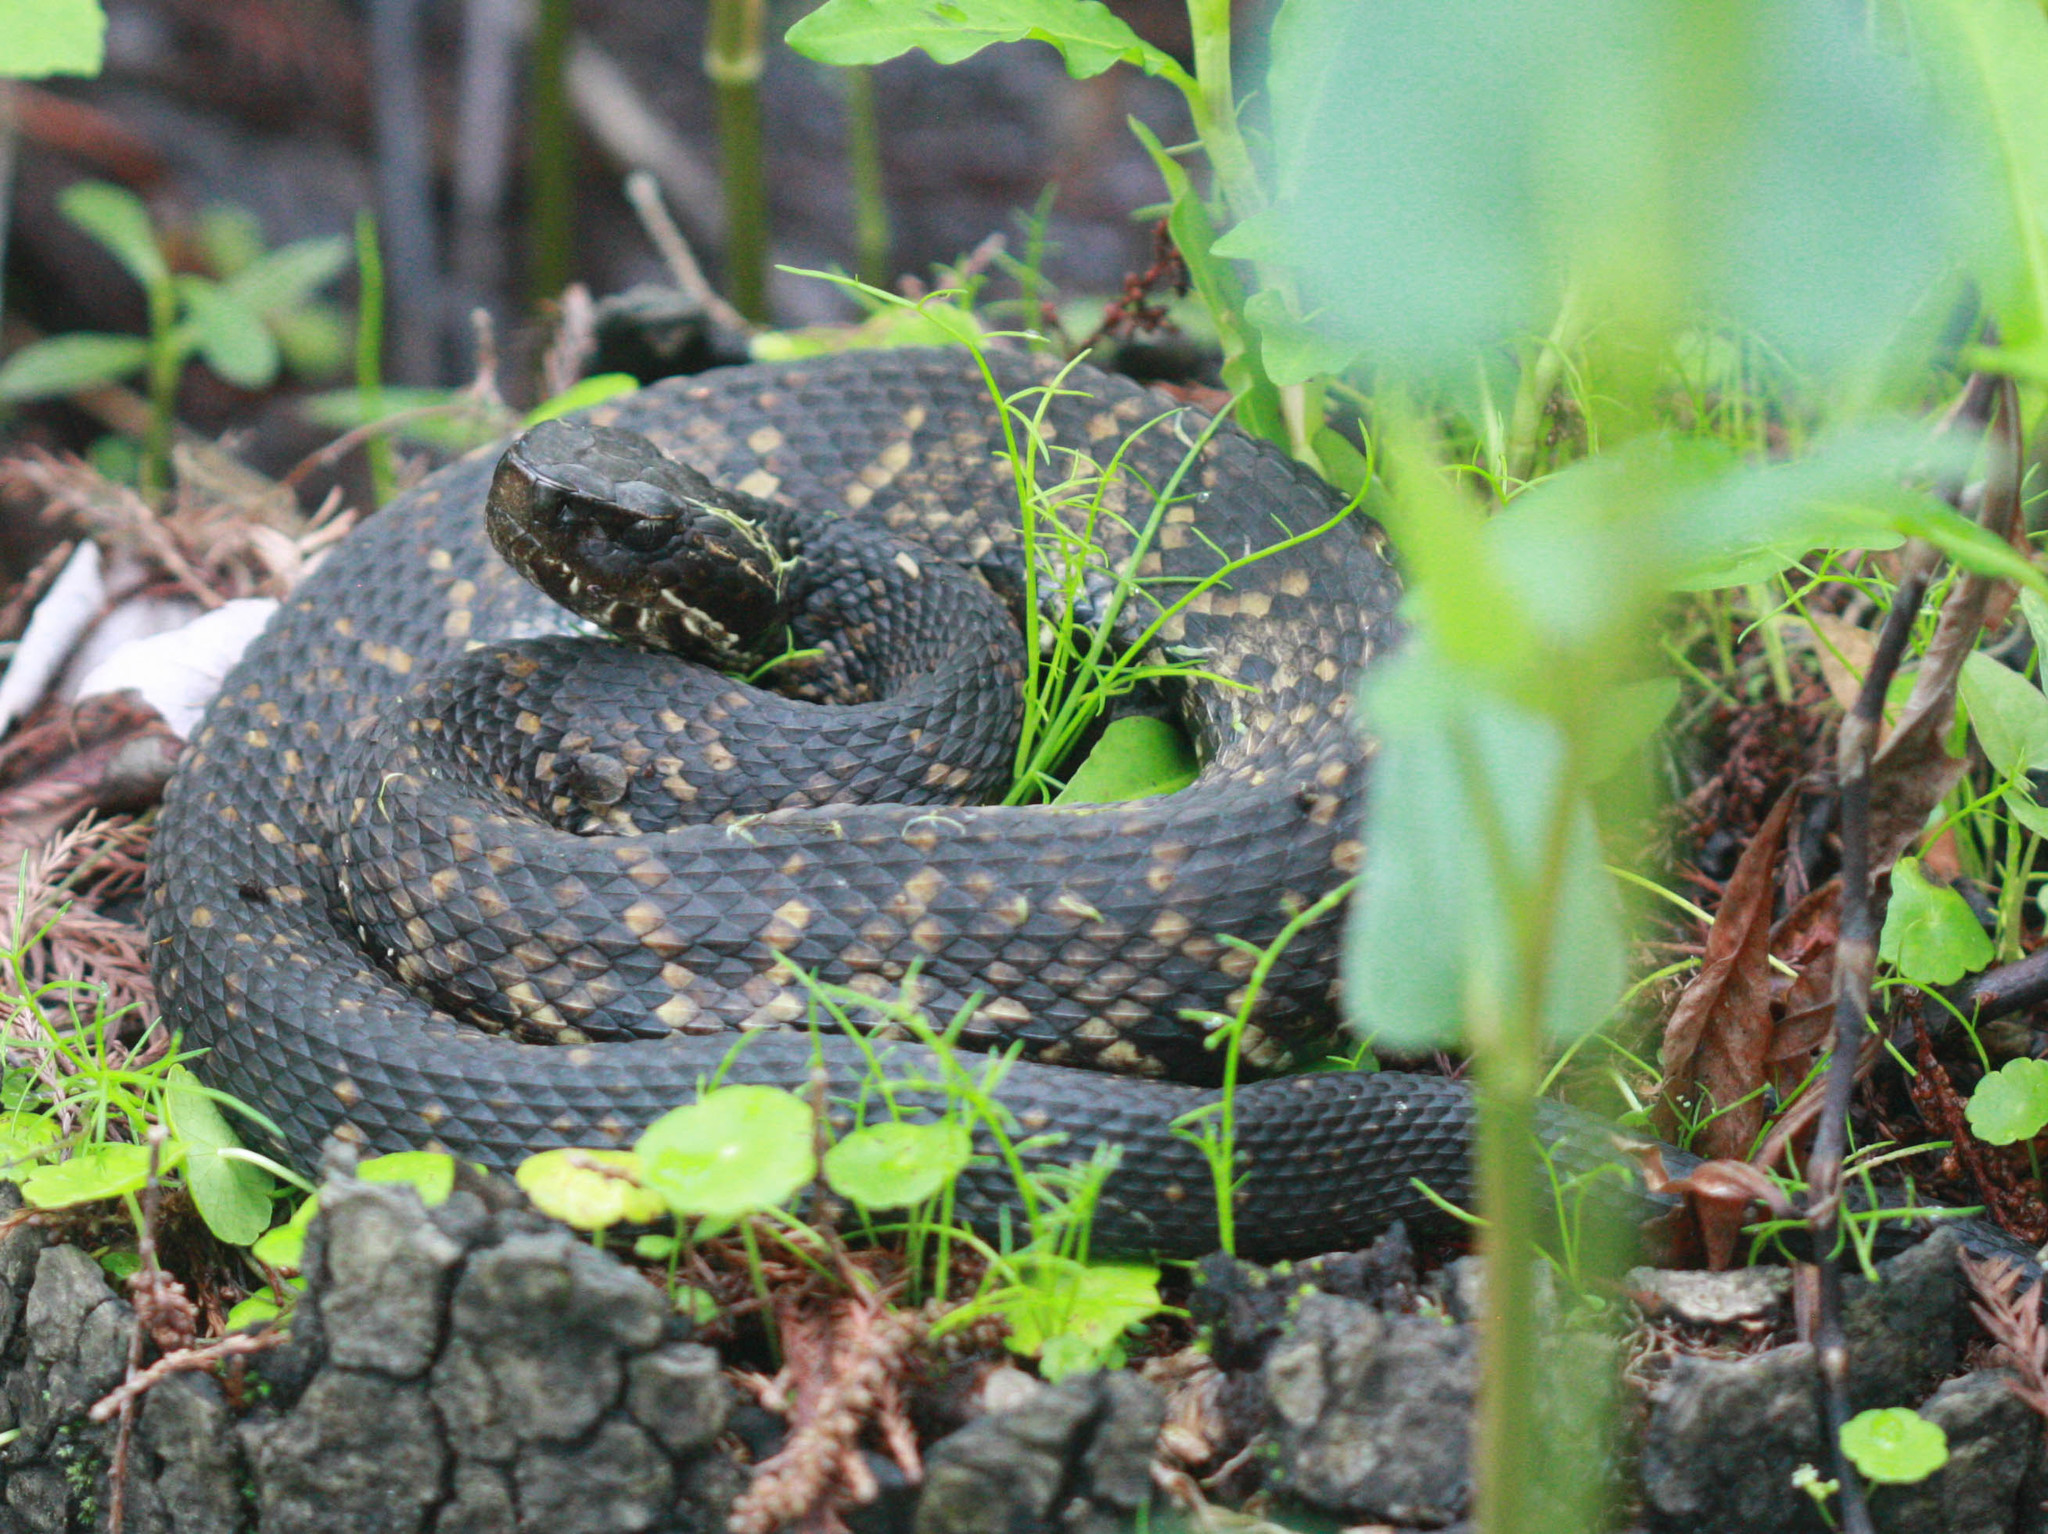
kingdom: Animalia
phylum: Chordata
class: Squamata
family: Viperidae
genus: Agkistrodon
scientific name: Agkistrodon piscivorus
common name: Cottonmouth
